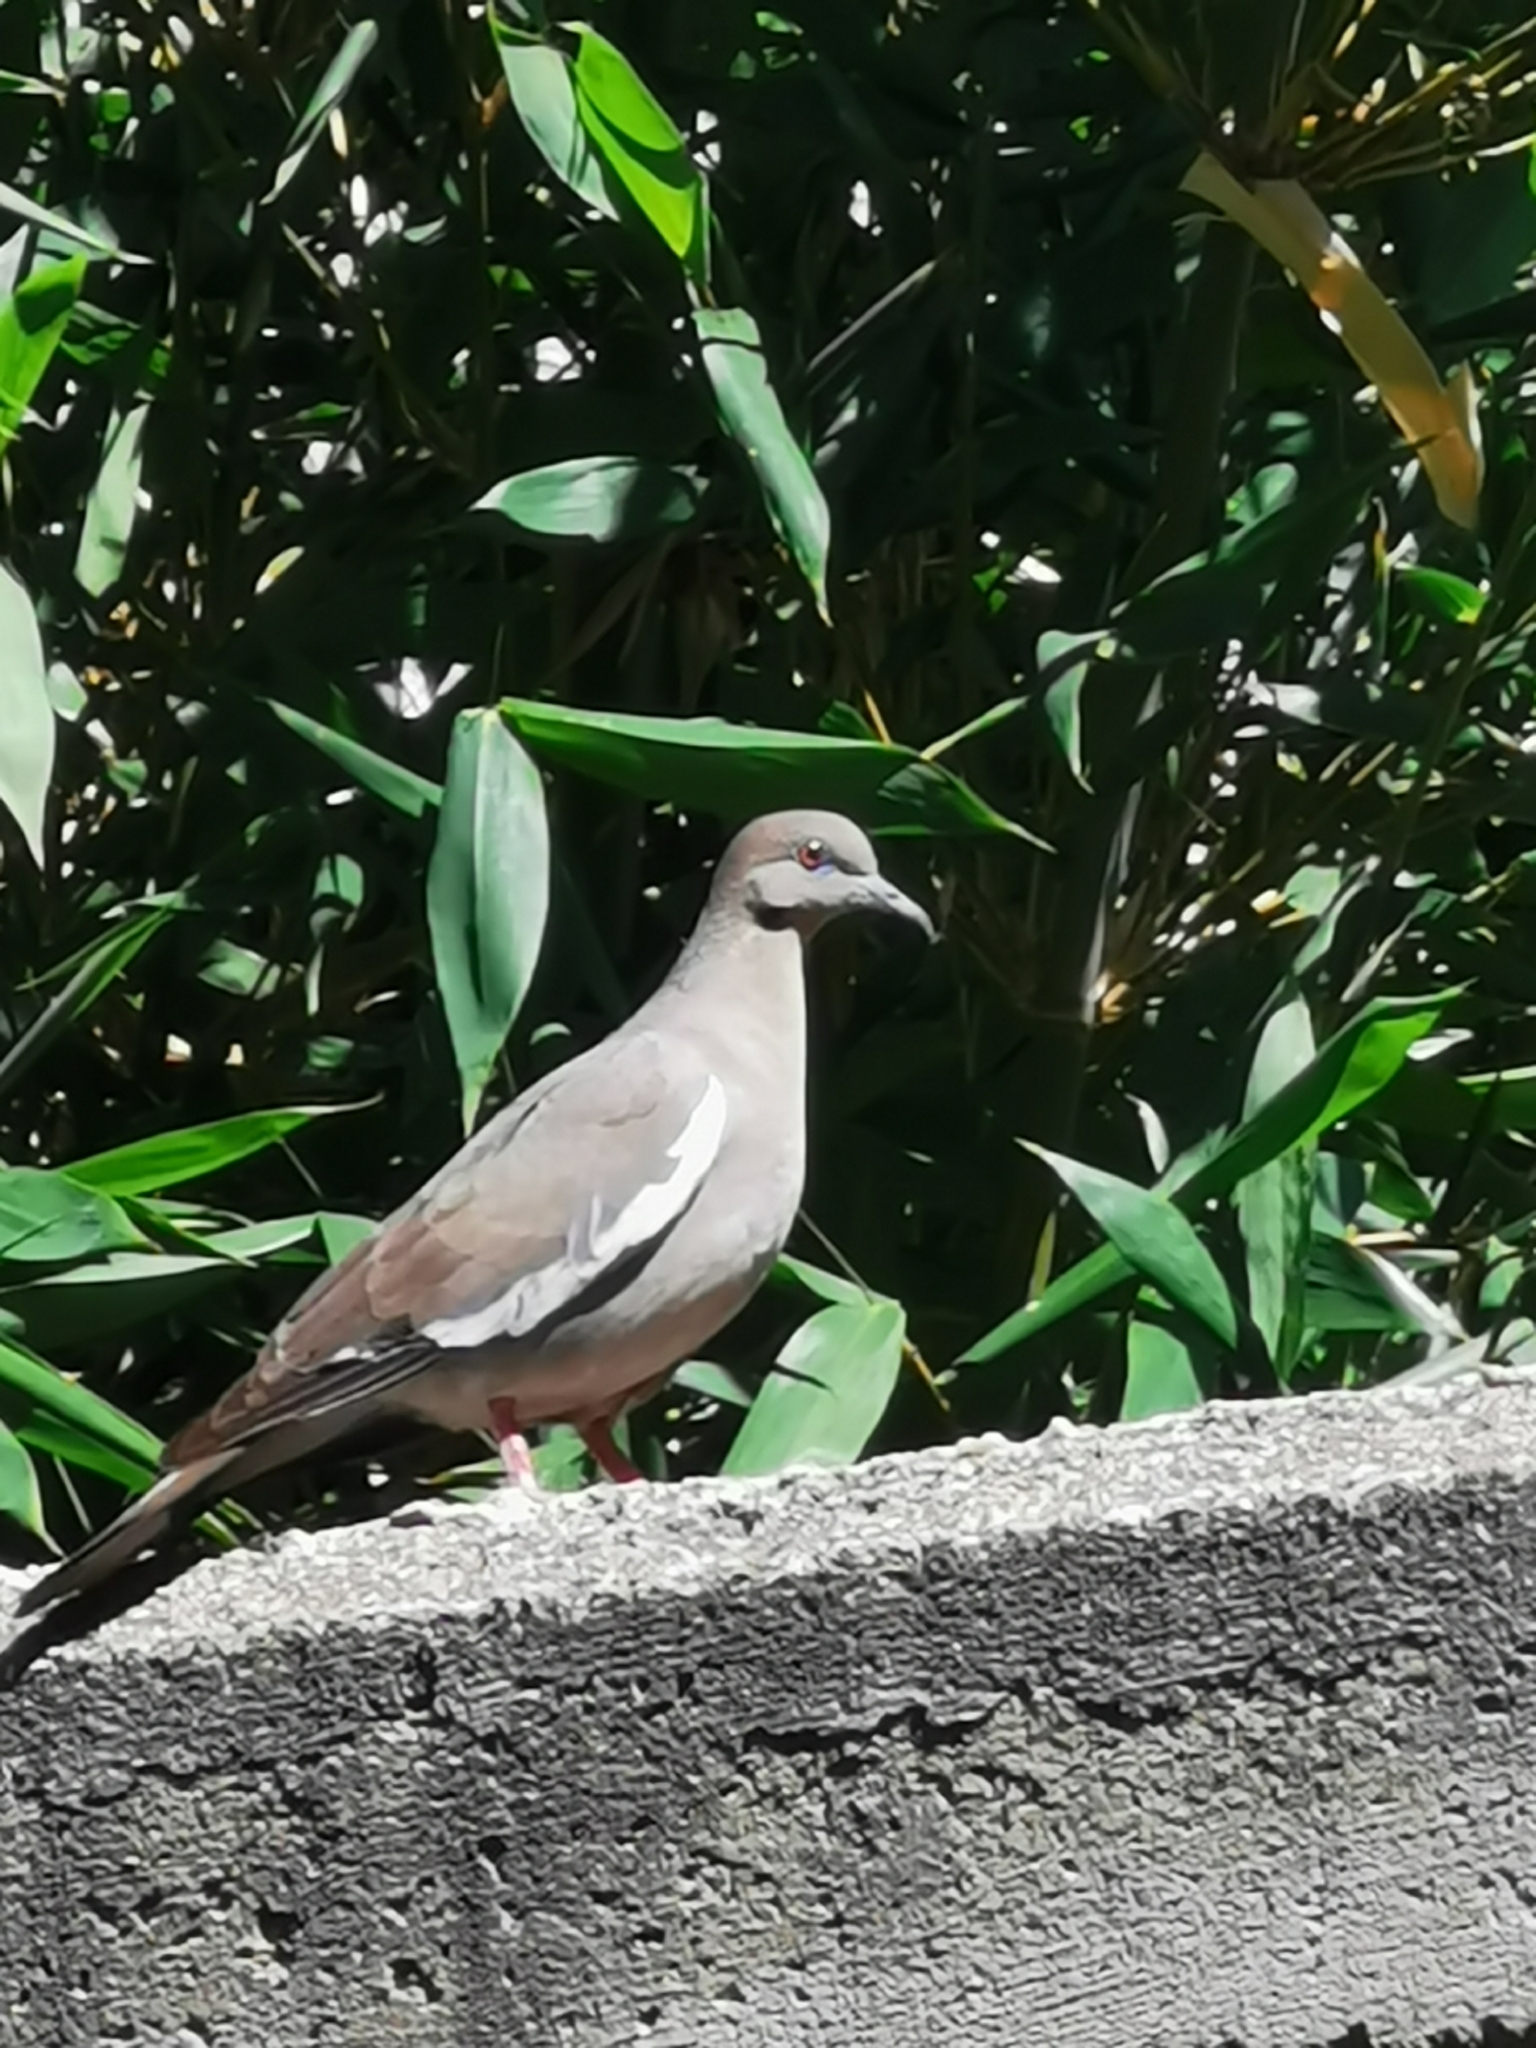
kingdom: Animalia
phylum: Chordata
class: Aves
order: Columbiformes
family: Columbidae
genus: Zenaida
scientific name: Zenaida asiatica
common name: White-winged dove
